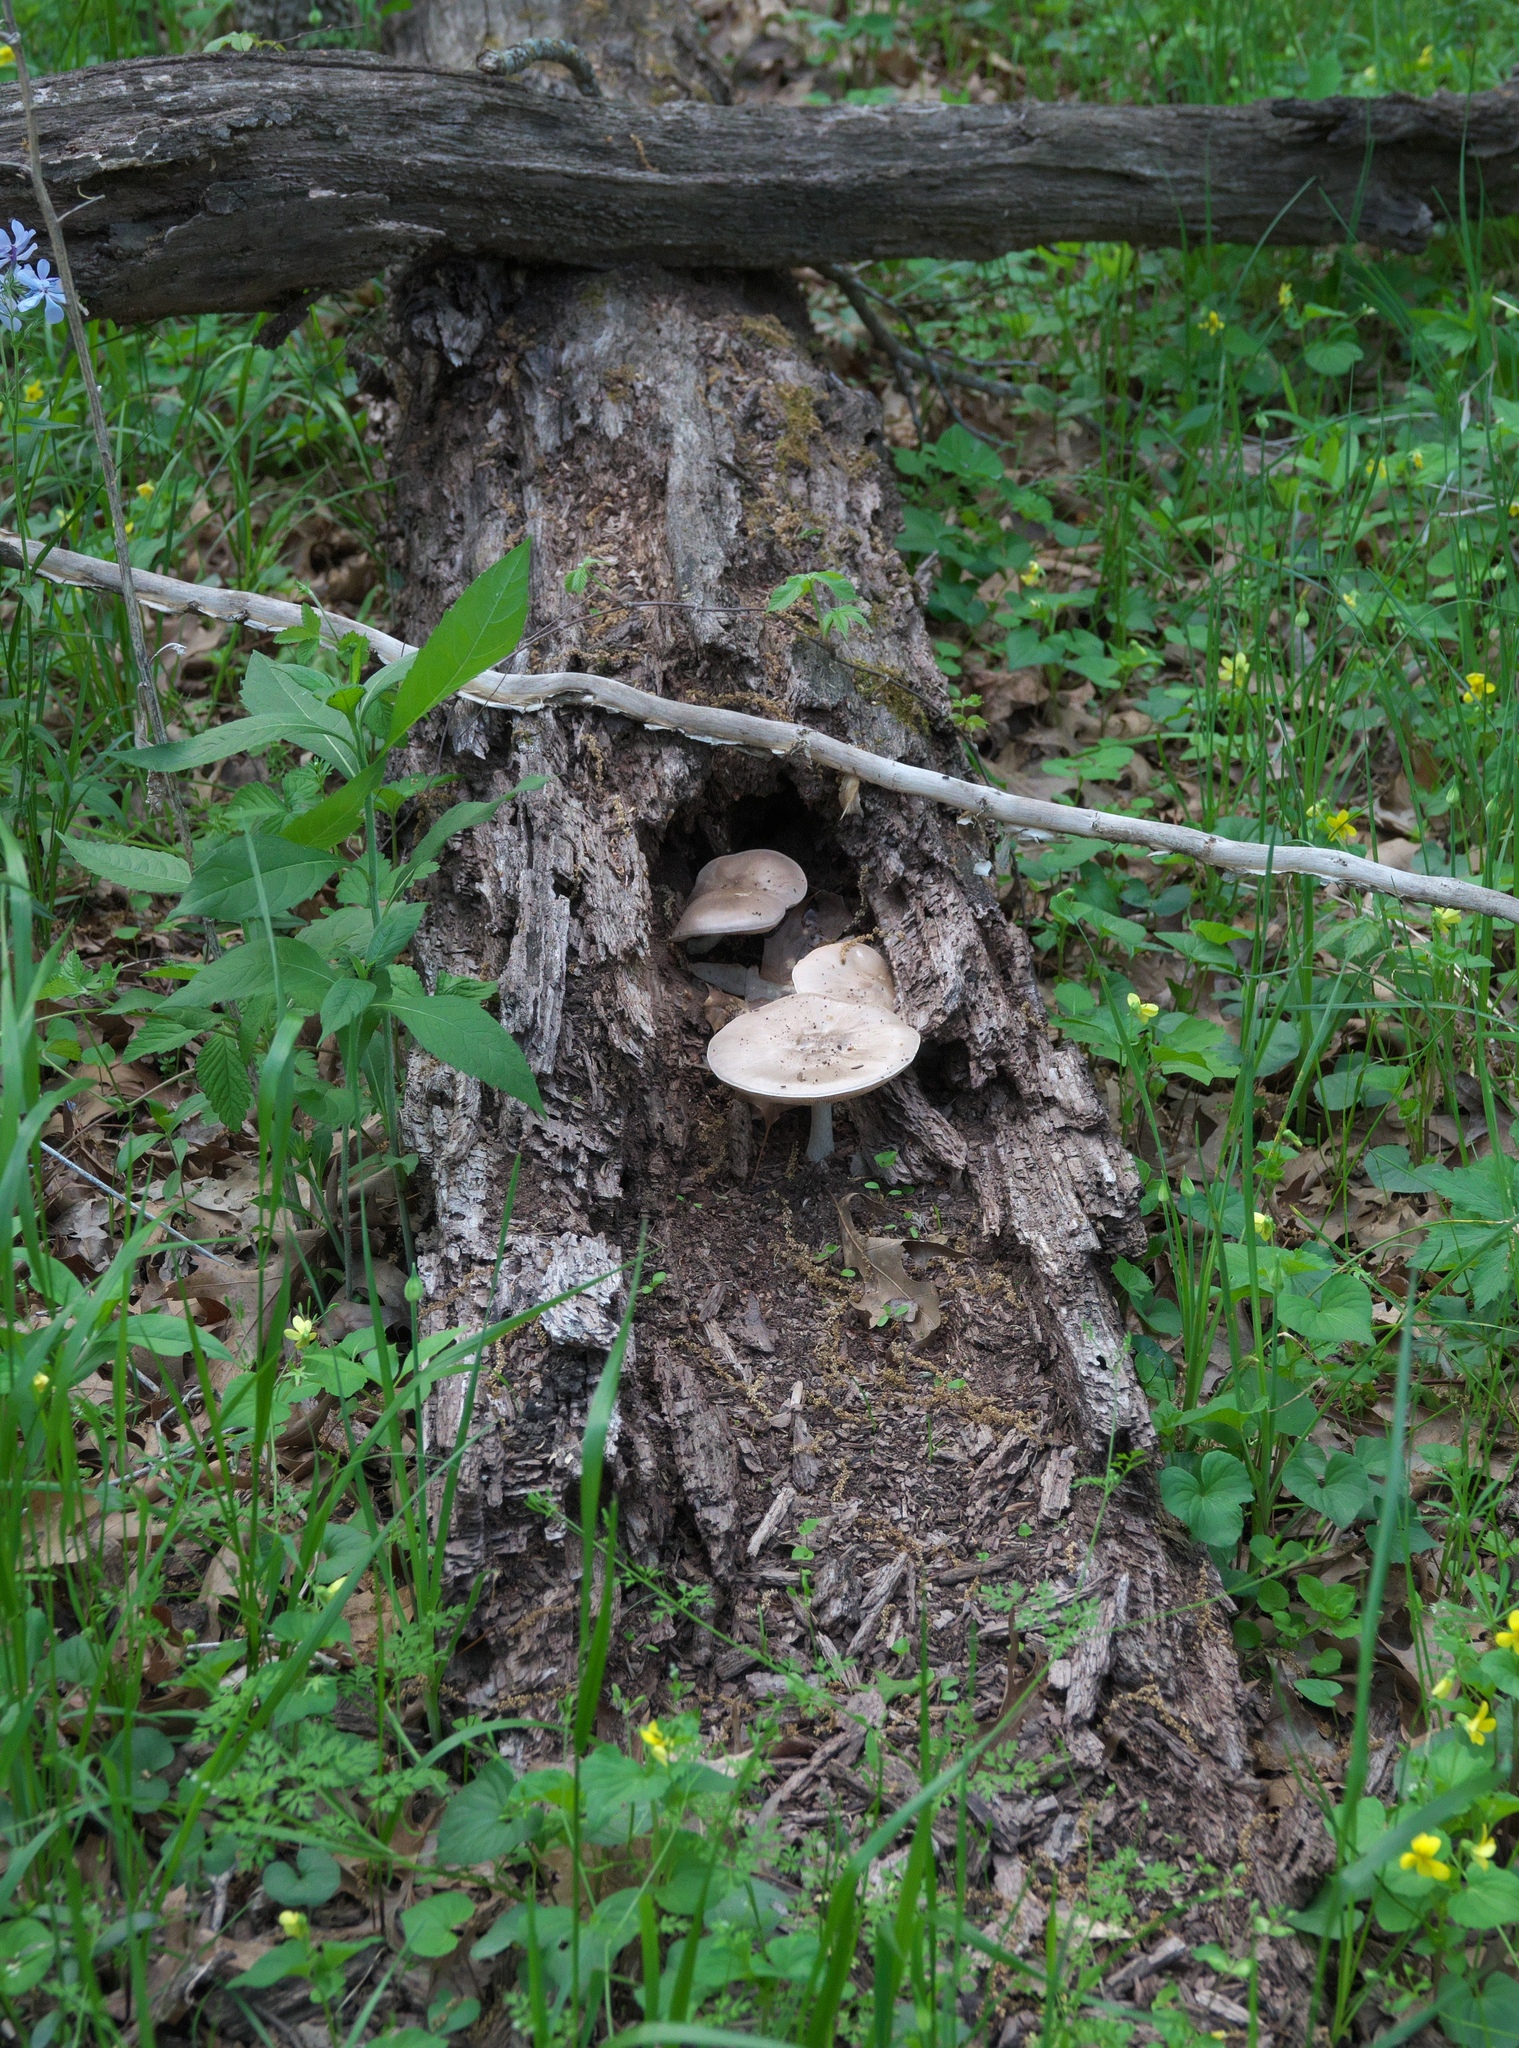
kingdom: Fungi
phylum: Basidiomycota
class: Agaricomycetes
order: Agaricales
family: Pluteaceae
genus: Pluteus
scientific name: Pluteus cervinus
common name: Deer shield
